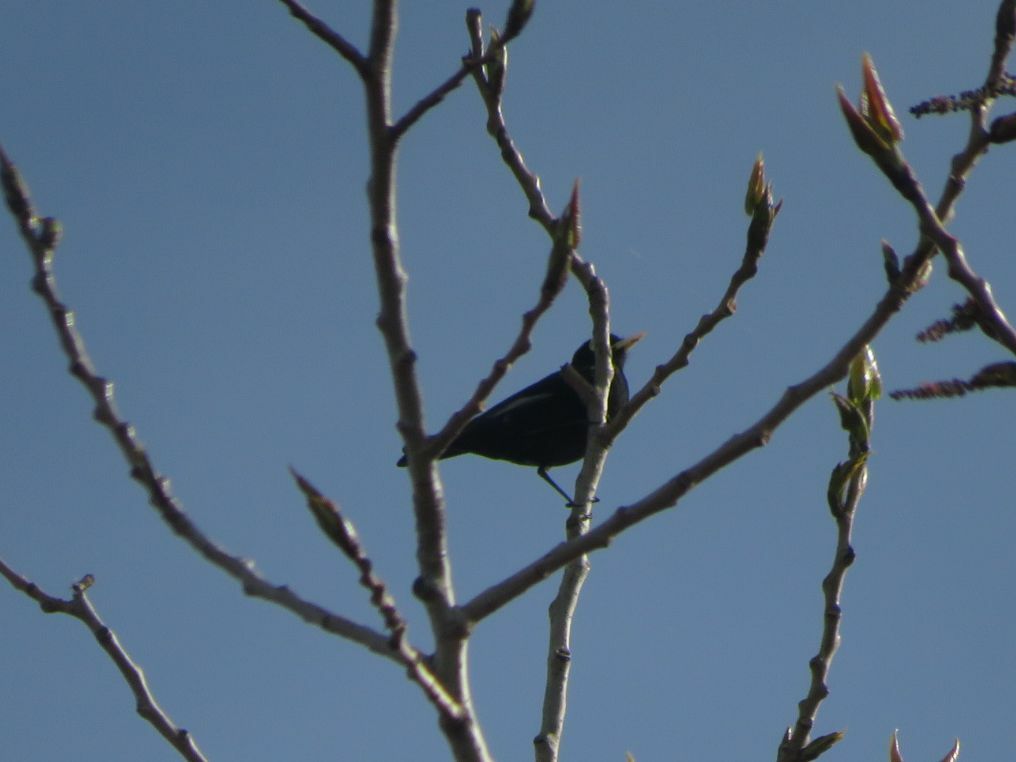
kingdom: Animalia
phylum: Chordata
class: Aves
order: Passeriformes
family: Tyrannidae
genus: Hymenops
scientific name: Hymenops perspicillatus
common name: Spectacled tyrant
